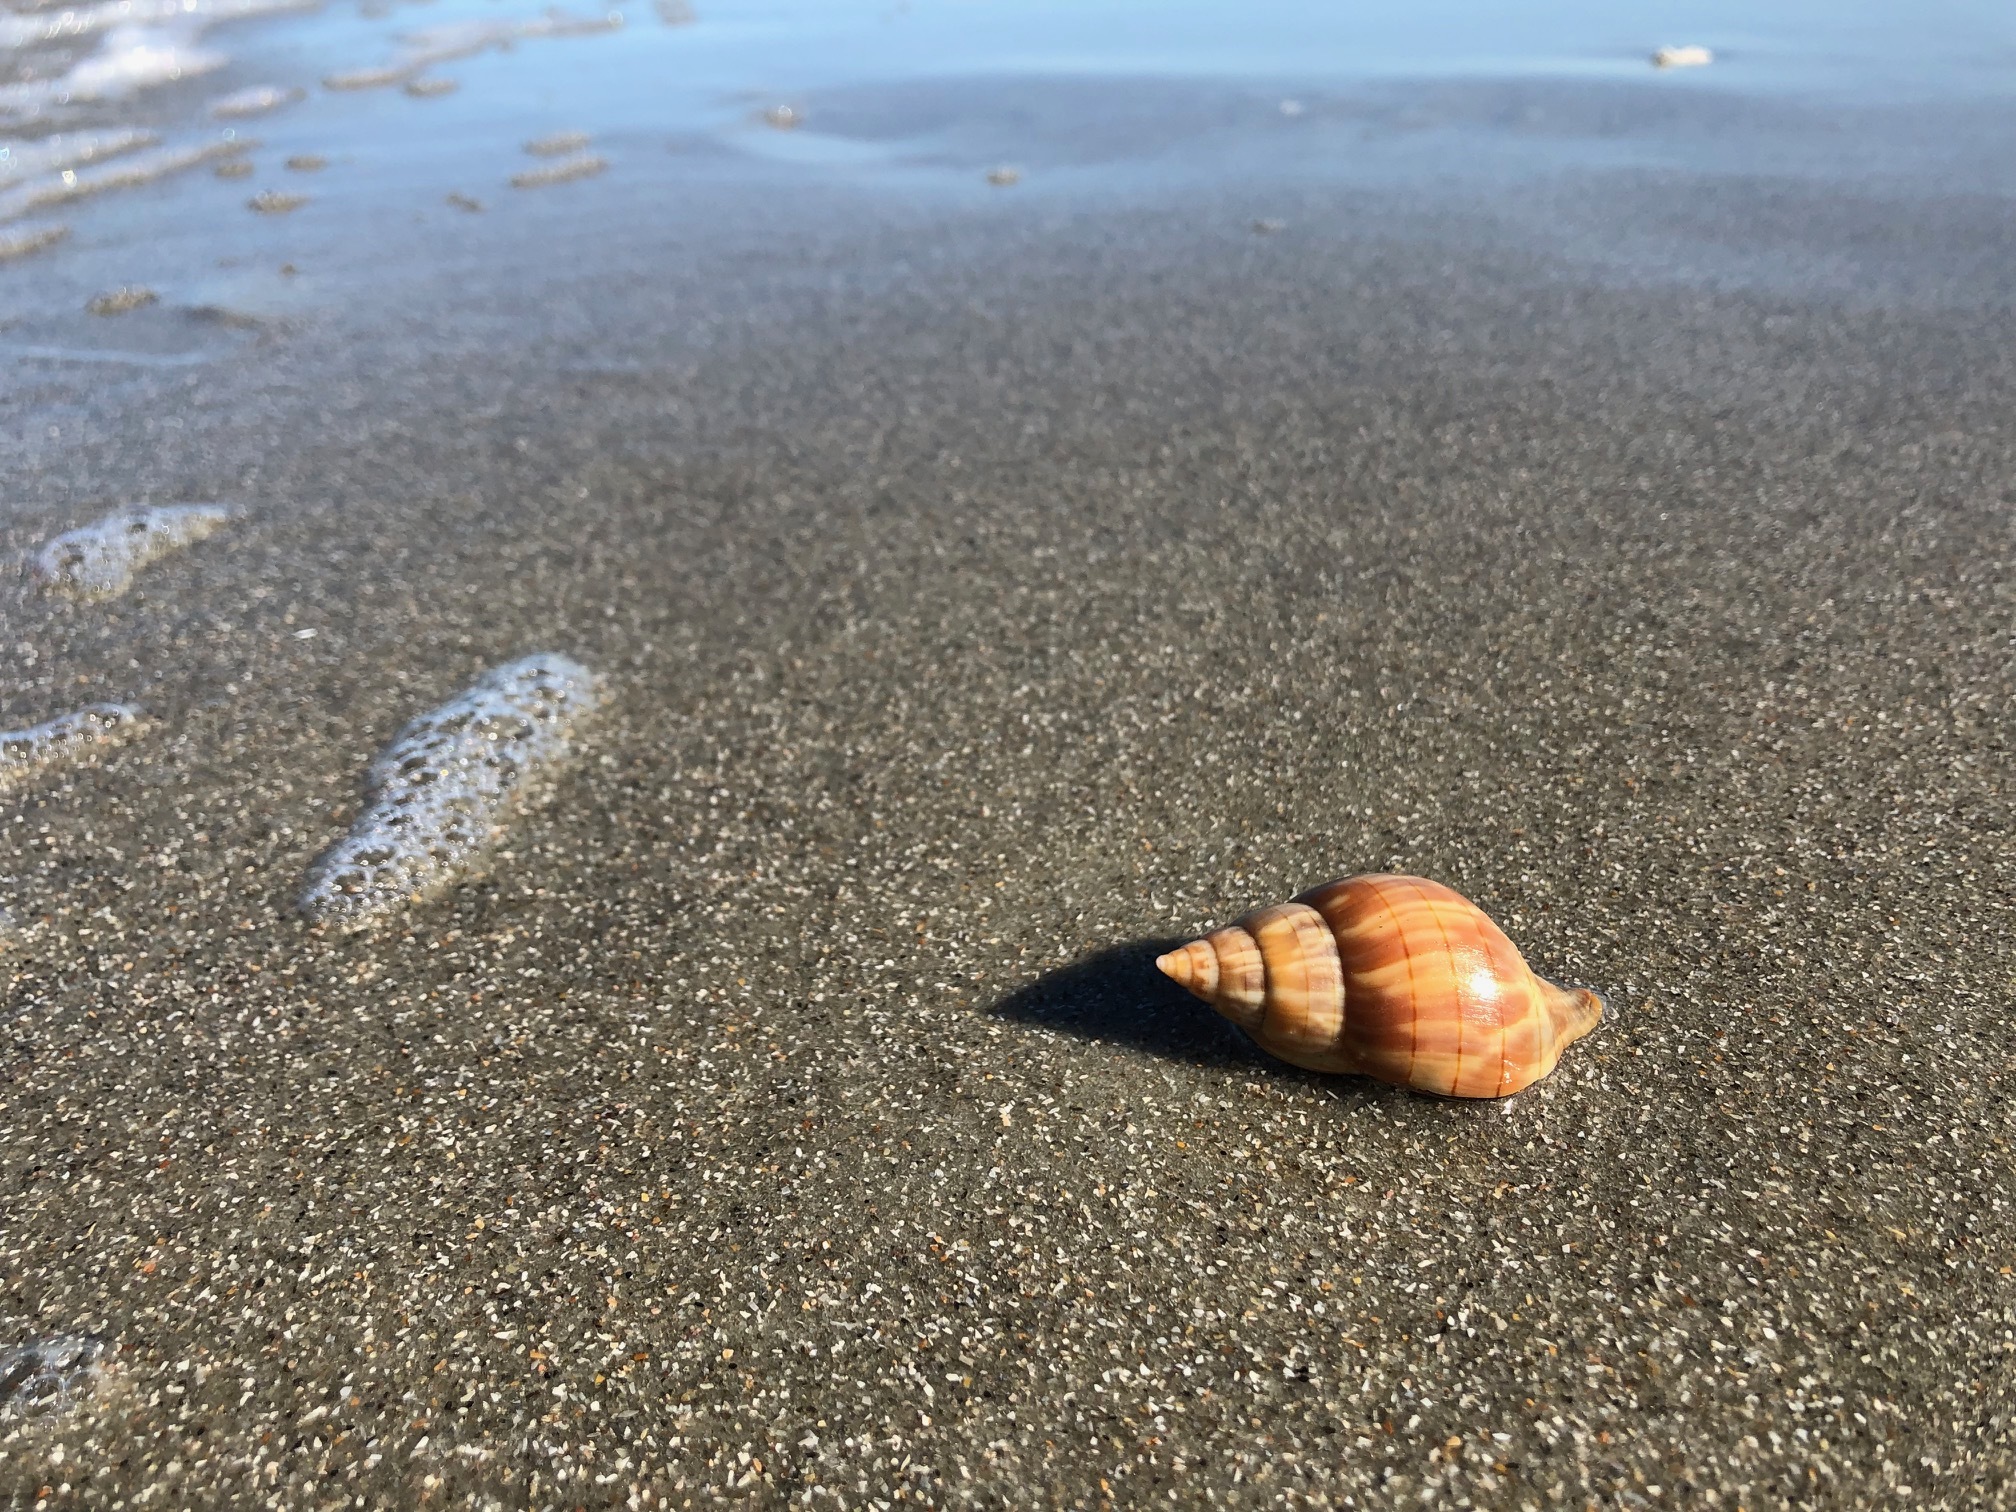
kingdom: Animalia
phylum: Mollusca
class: Gastropoda
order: Neogastropoda
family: Fasciolariidae
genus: Cinctura
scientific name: Cinctura hunteria
